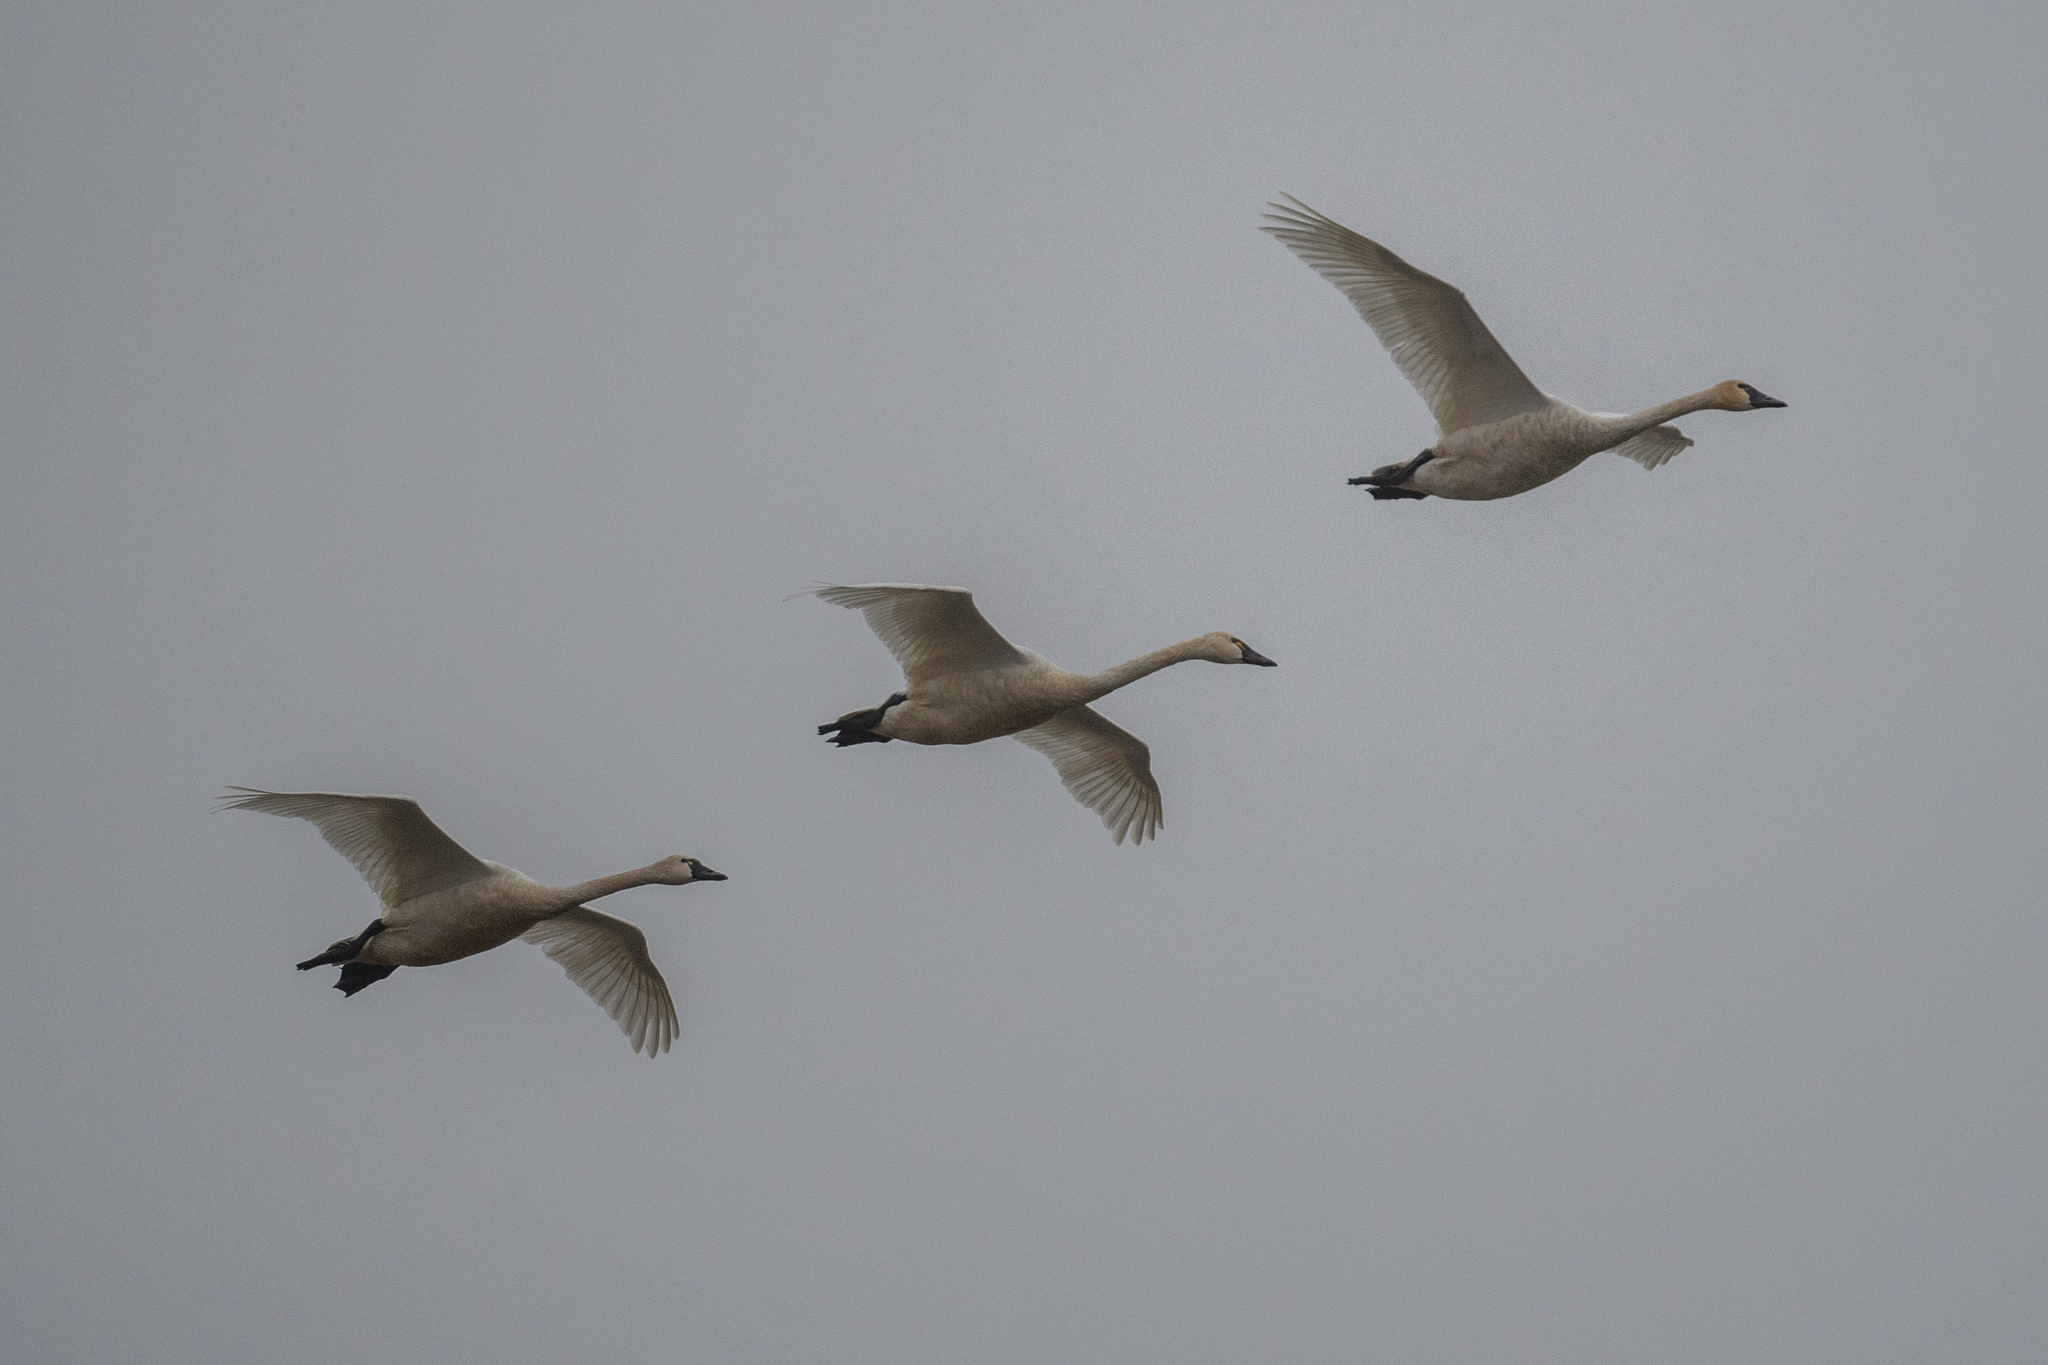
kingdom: Animalia
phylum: Chordata
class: Aves
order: Anseriformes
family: Anatidae
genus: Cygnus
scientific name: Cygnus columbianus
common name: Tundra swan
